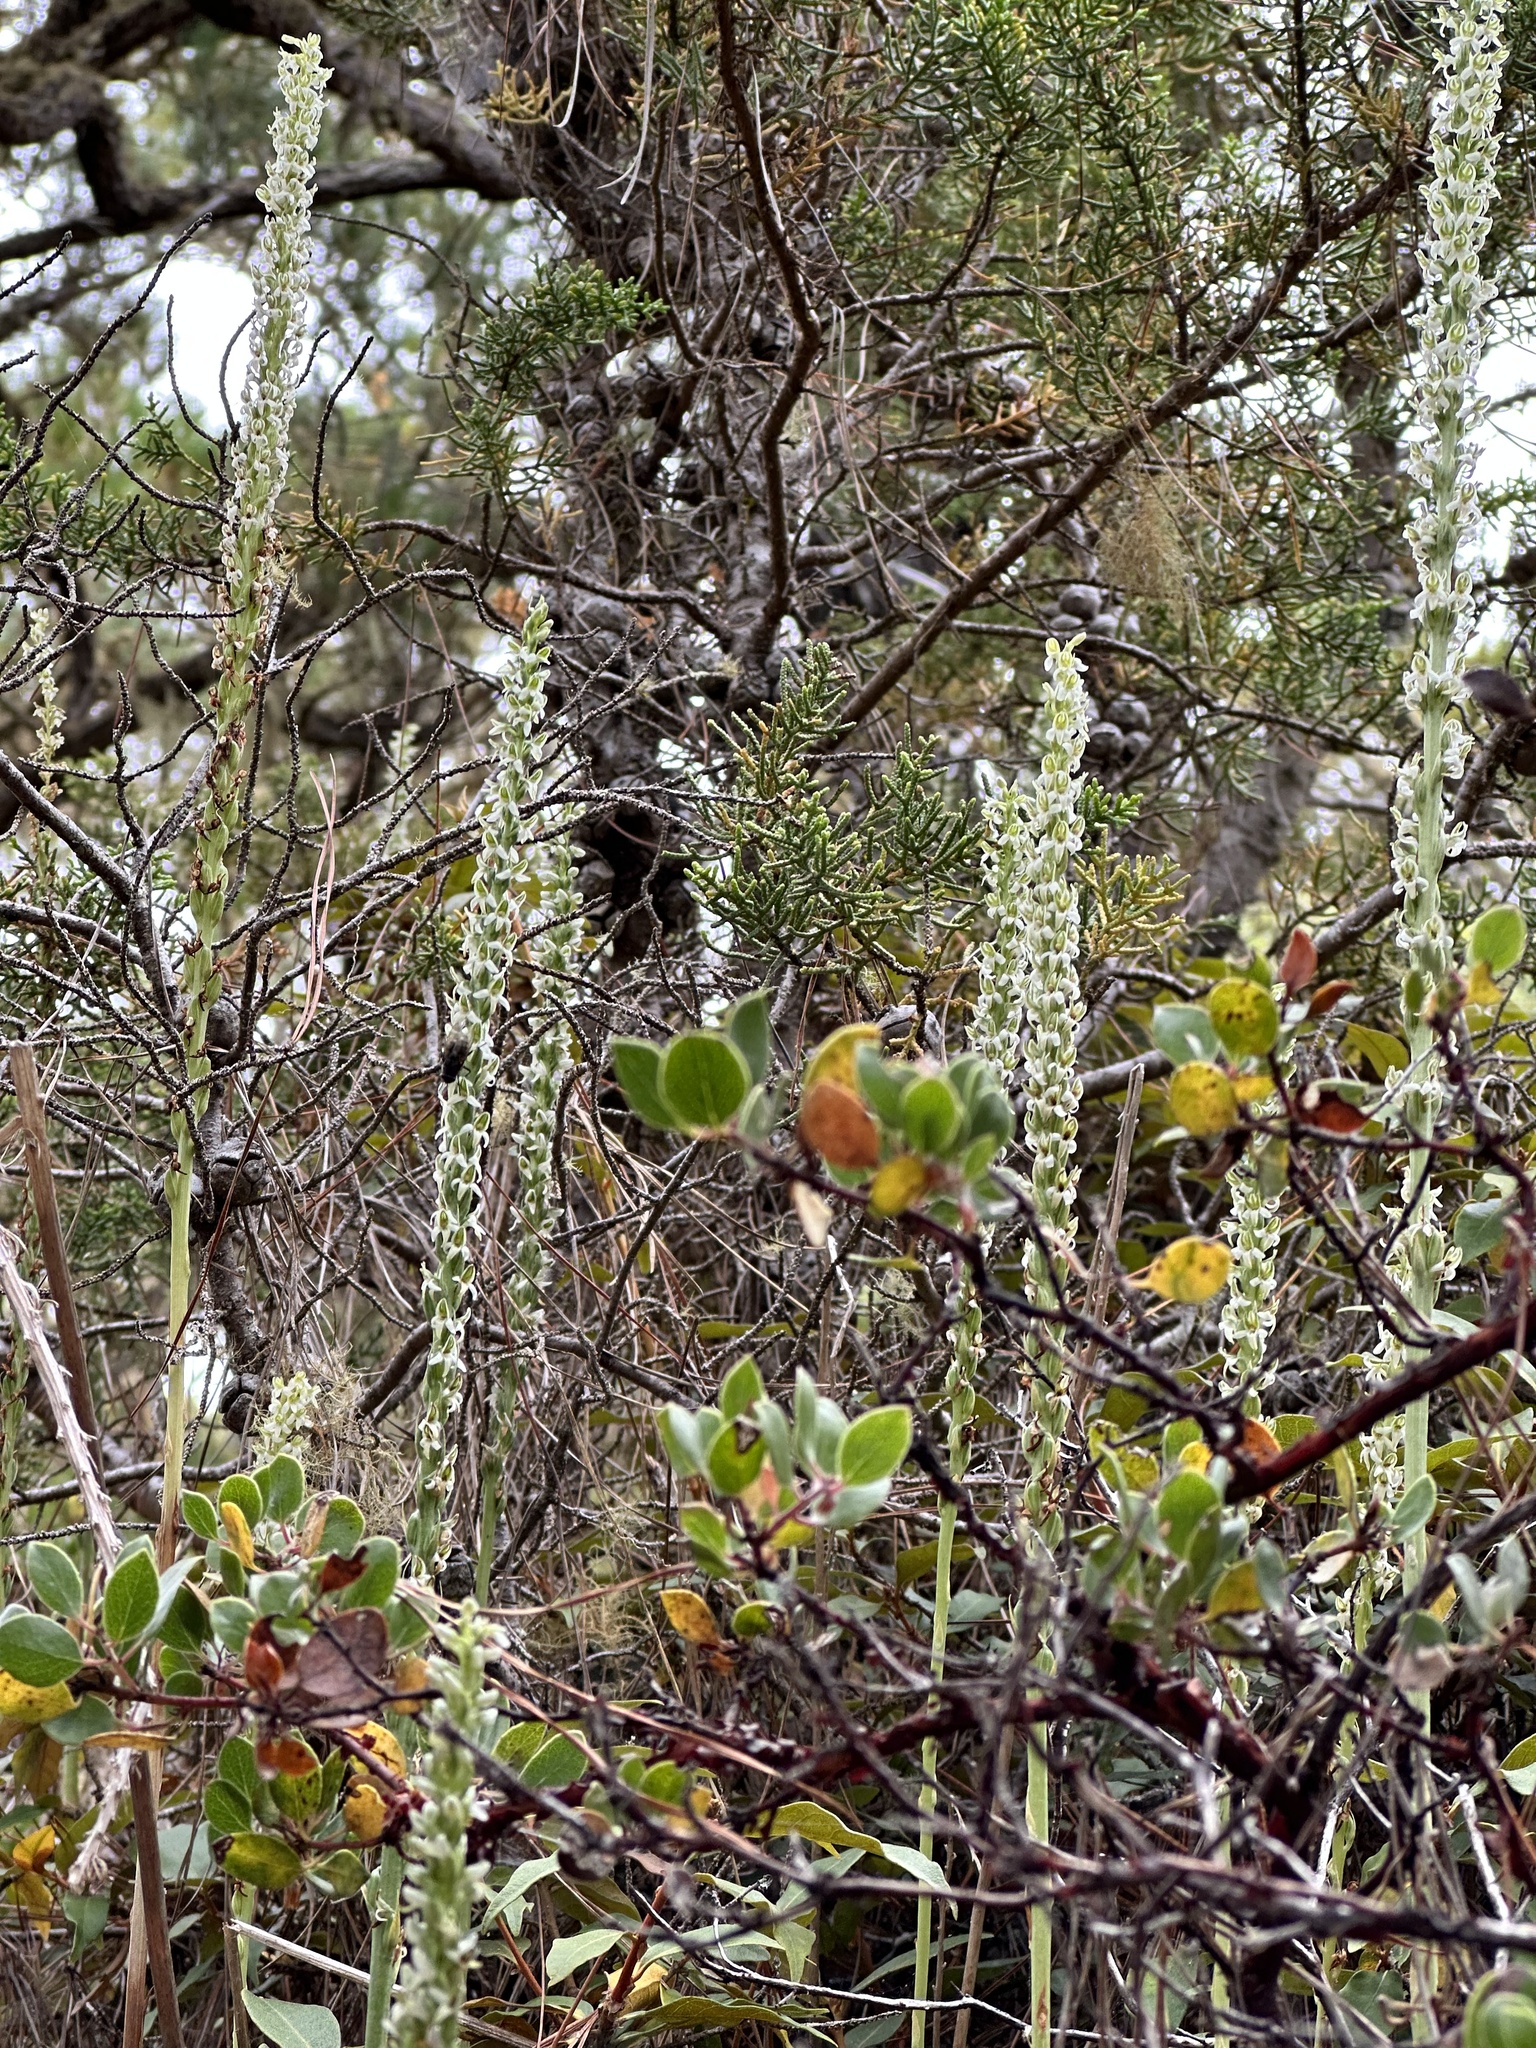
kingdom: Plantae
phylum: Tracheophyta
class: Liliopsida
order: Asparagales
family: Orchidaceae
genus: Platanthera
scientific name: Platanthera yadonii
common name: Yadon’s piperia
